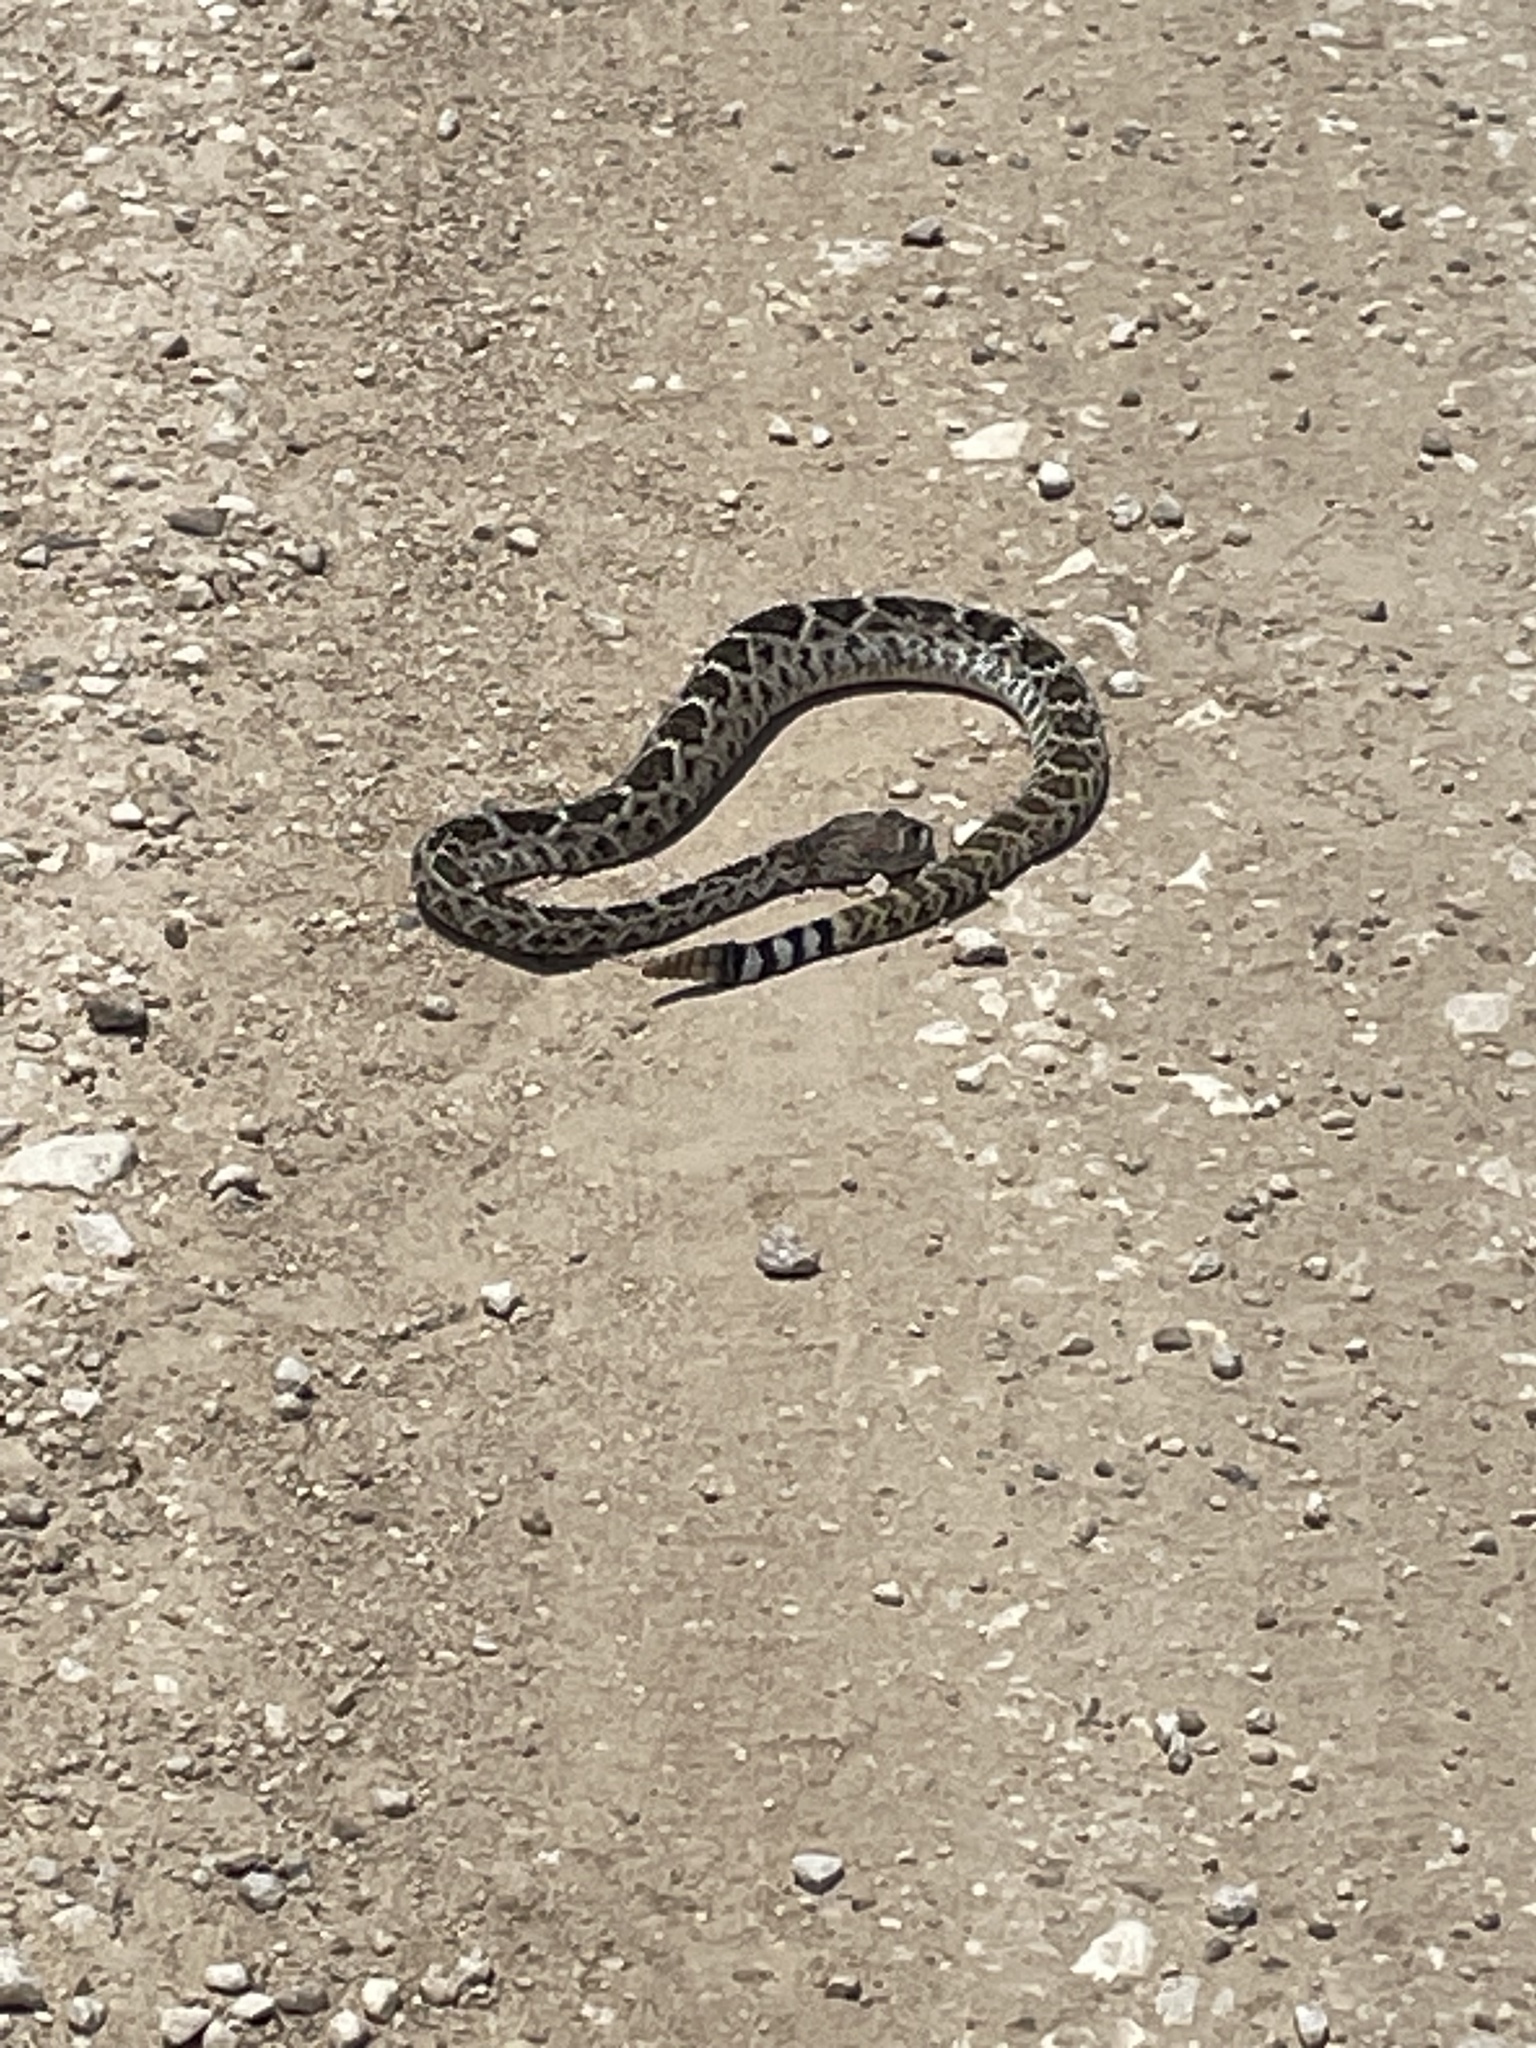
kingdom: Animalia
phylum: Chordata
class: Squamata
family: Viperidae
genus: Crotalus
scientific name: Crotalus atrox
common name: Western diamond-backed rattlesnake
